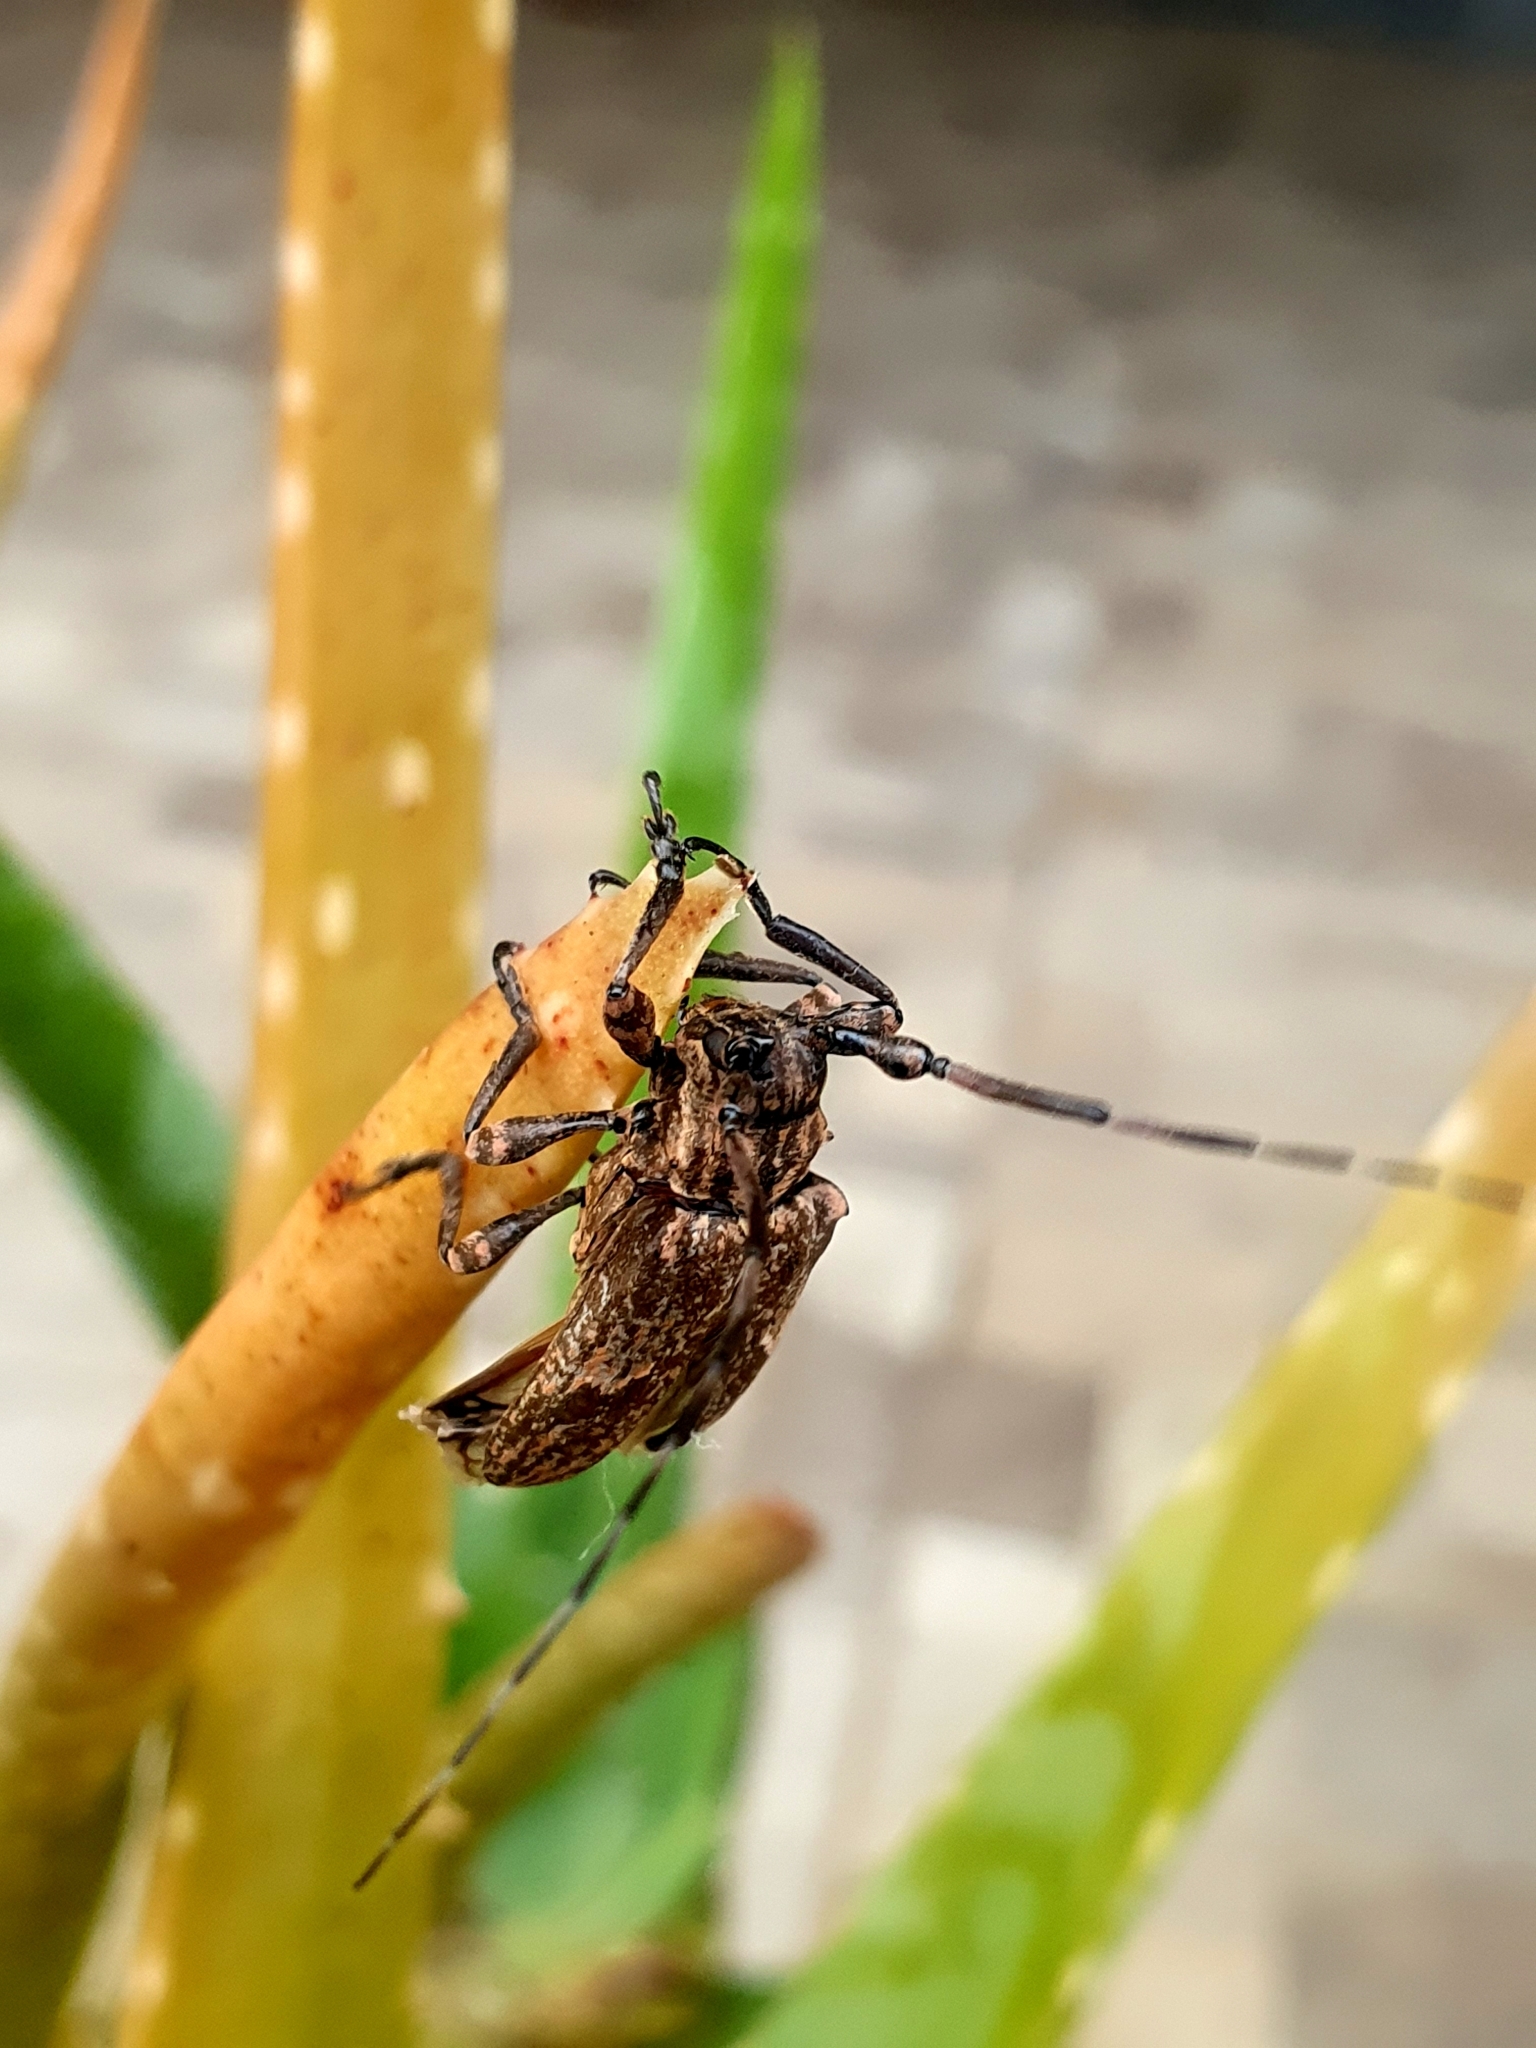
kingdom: Animalia
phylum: Arthropoda
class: Insecta
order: Coleoptera
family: Cerambycidae
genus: Hesychotypa
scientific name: Hesychotypa subfasciata
